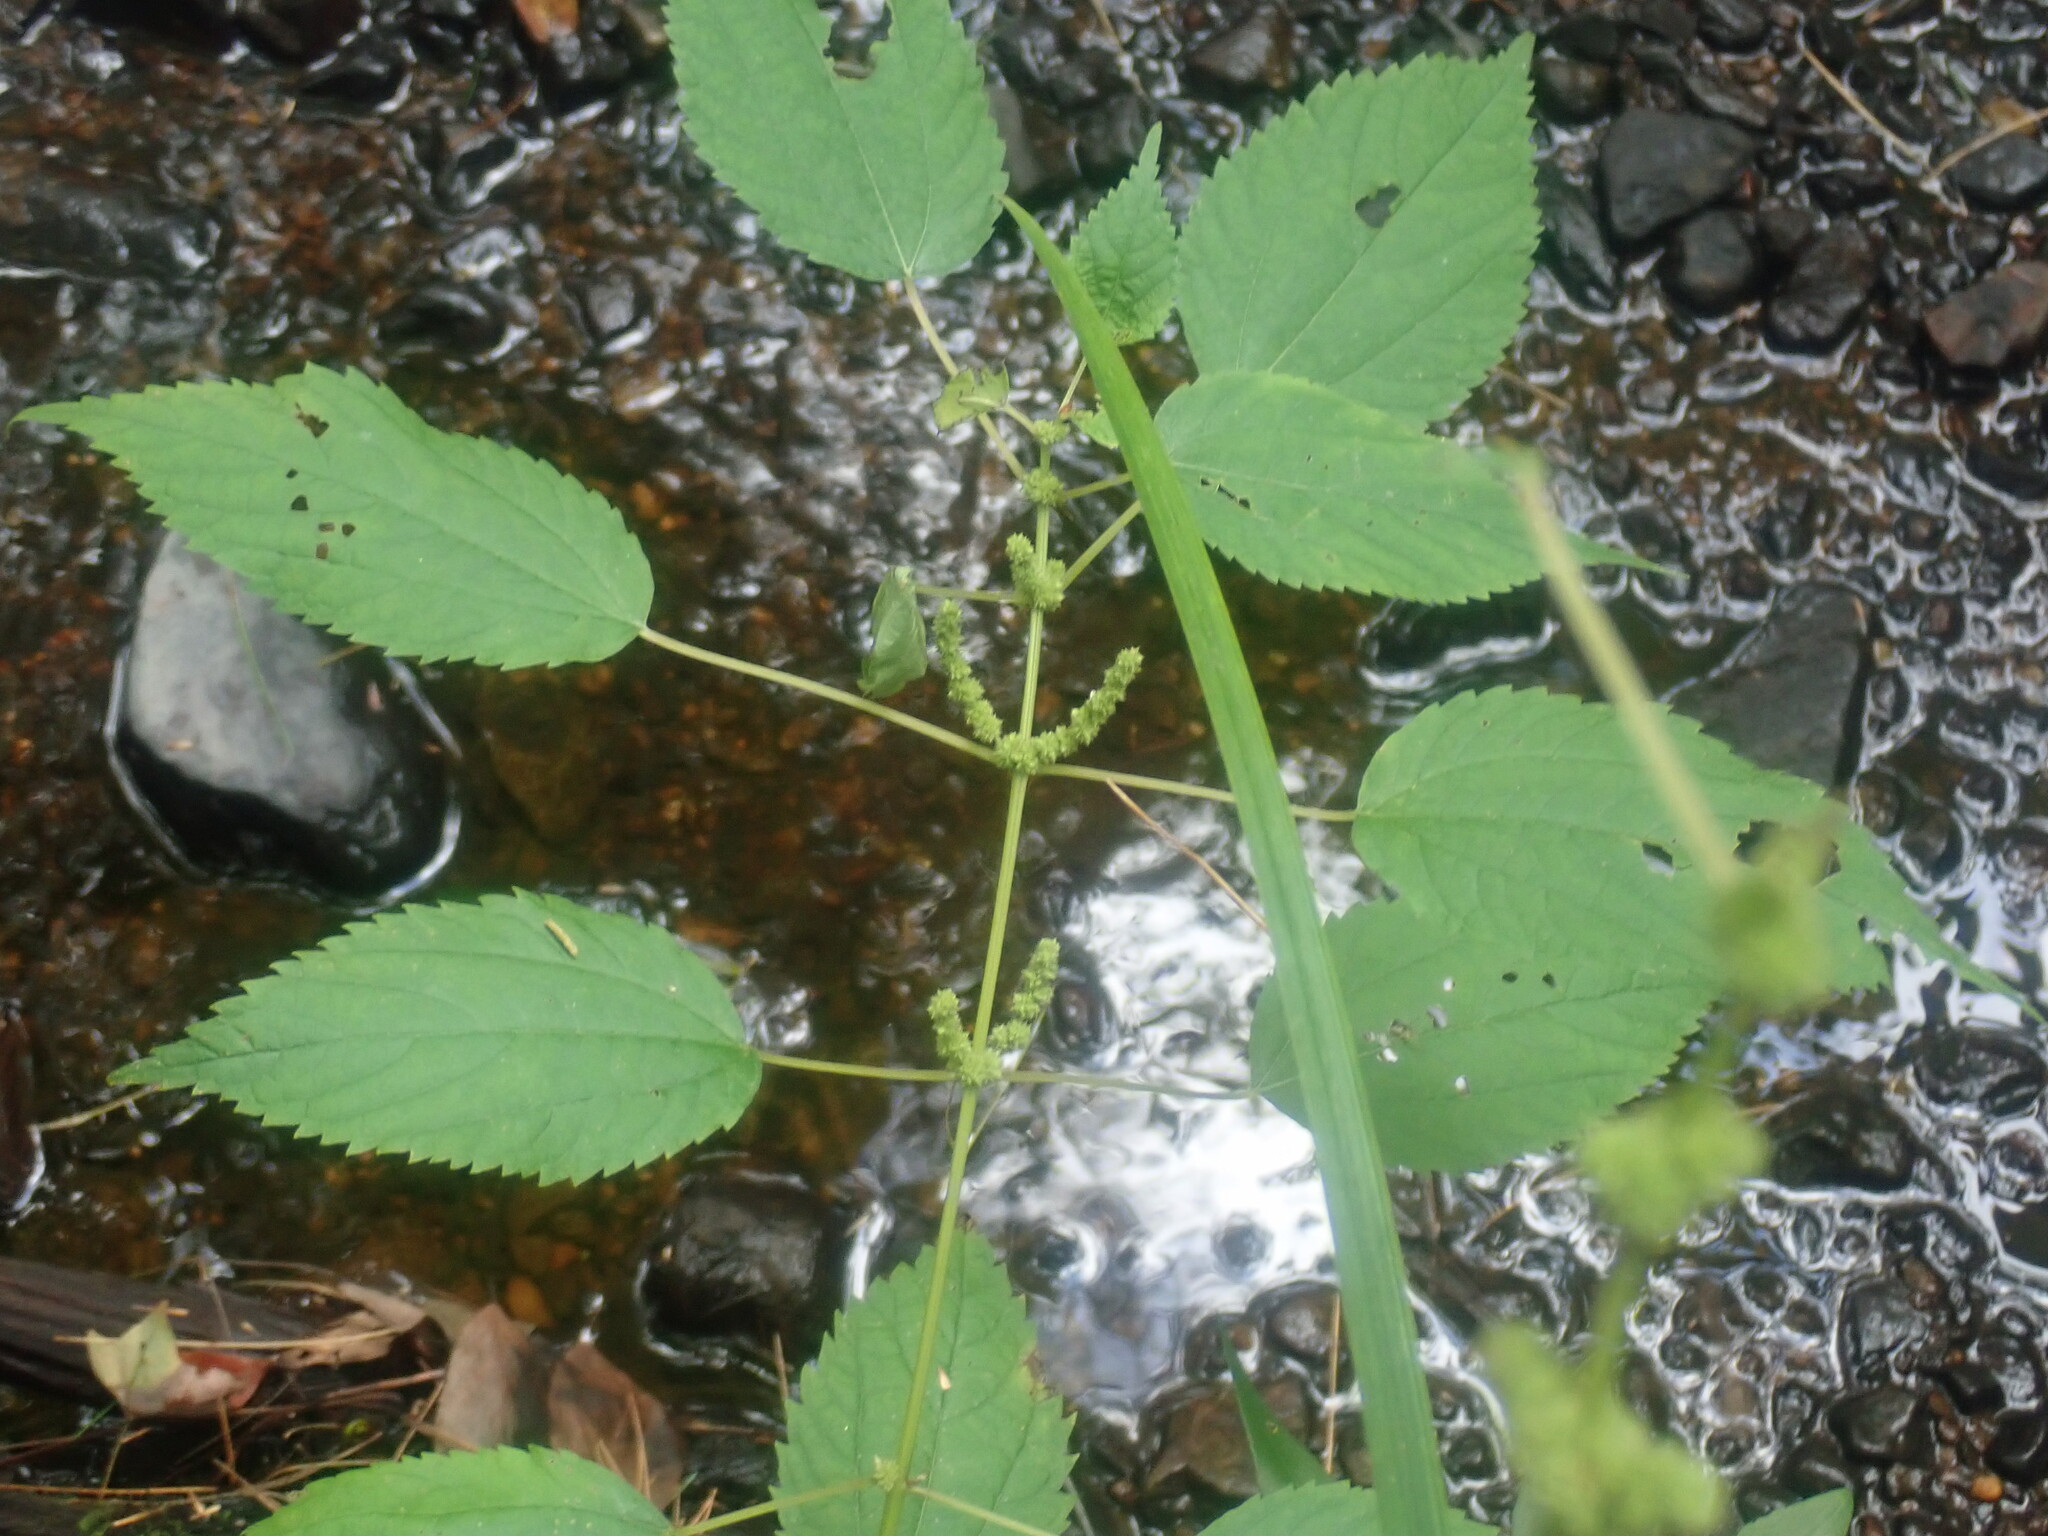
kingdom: Plantae
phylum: Tracheophyta
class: Magnoliopsida
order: Rosales
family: Urticaceae
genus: Boehmeria
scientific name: Boehmeria cylindrica
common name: Bog-hemp
